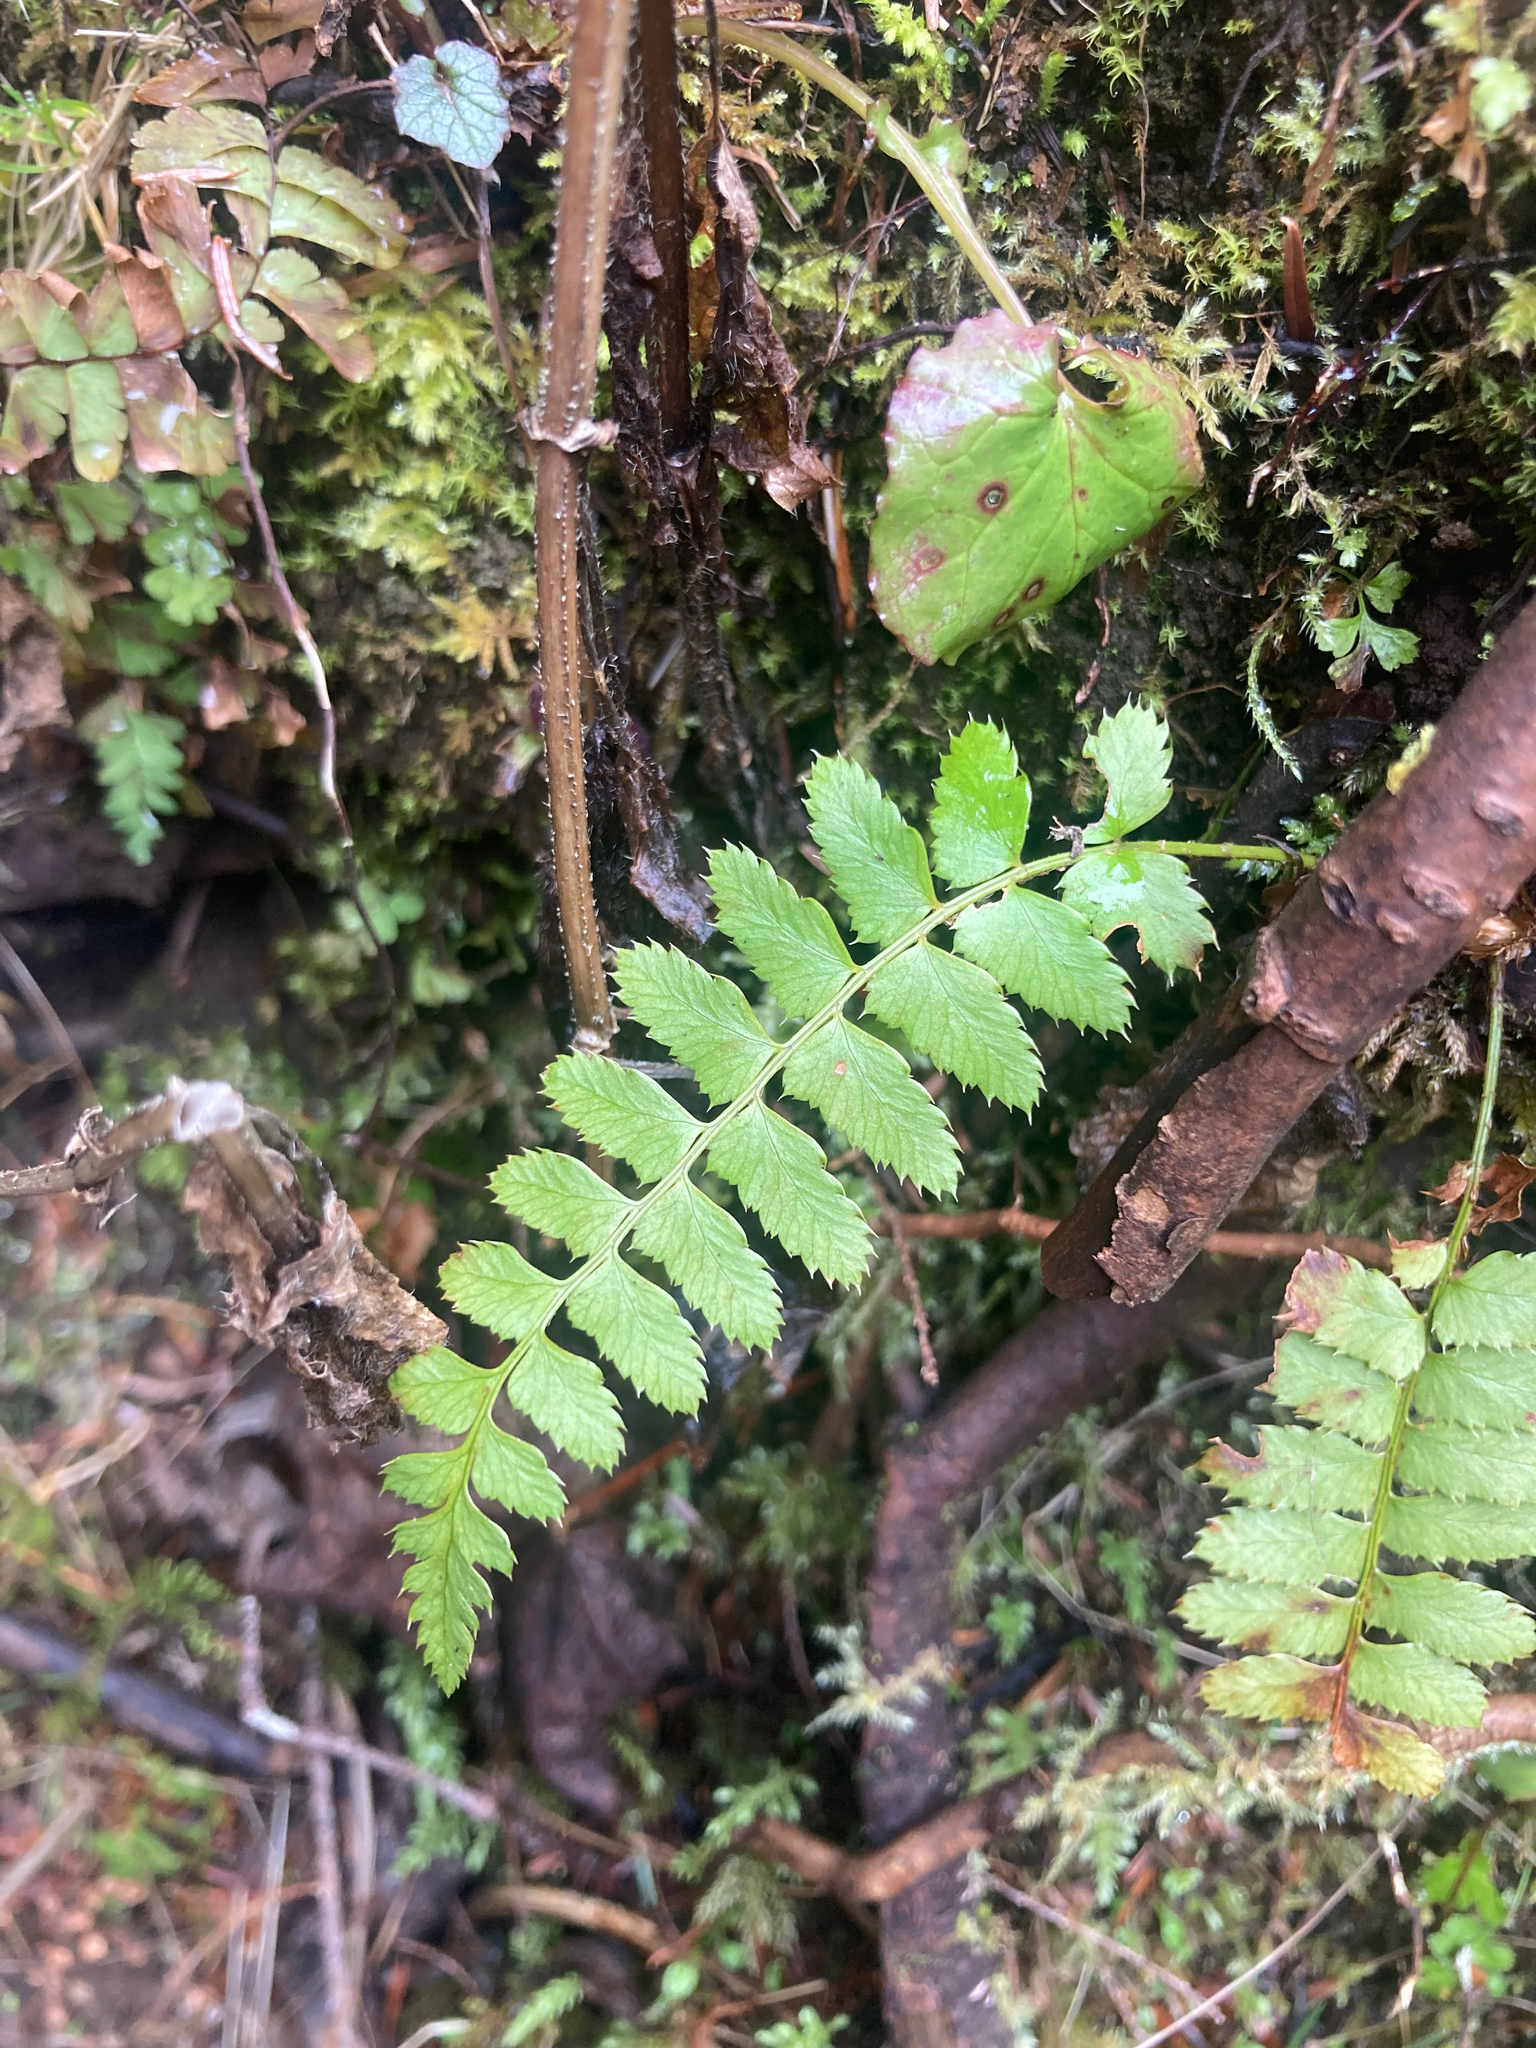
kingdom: Plantae
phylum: Tracheophyta
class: Polypodiopsida
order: Polypodiales
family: Dryopteridaceae
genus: Polystichum
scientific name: Polystichum munitum
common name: Western sword-fern
